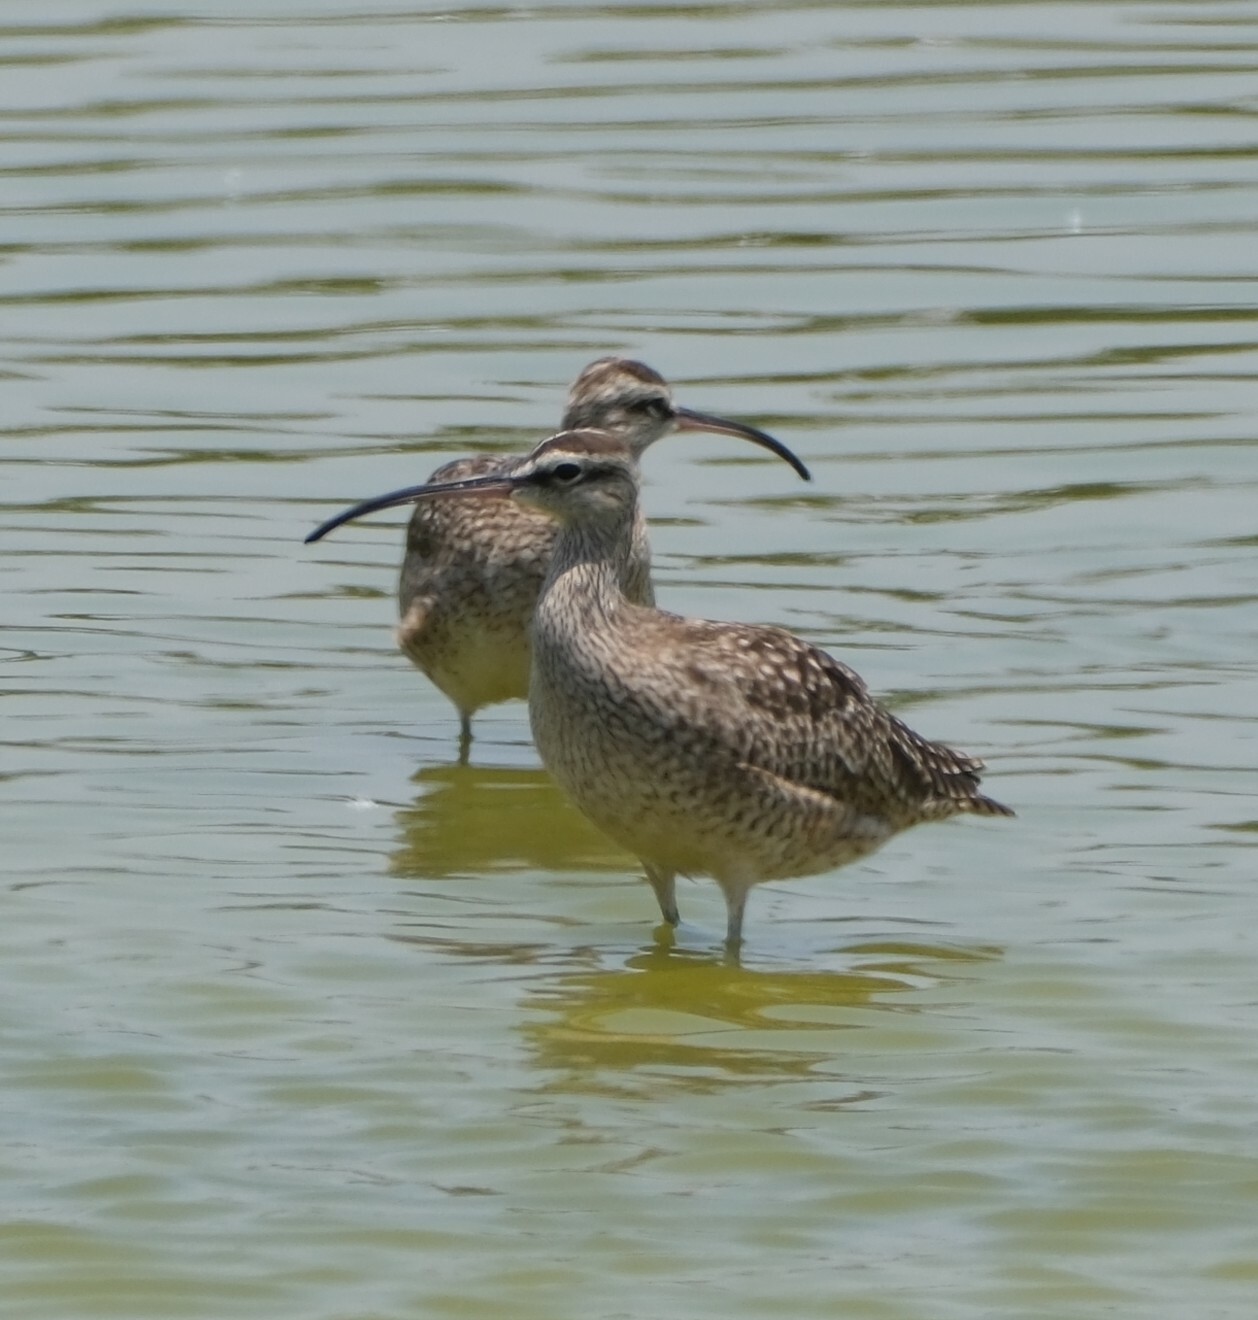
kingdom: Animalia
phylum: Chordata
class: Aves
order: Charadriiformes
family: Scolopacidae
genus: Numenius
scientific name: Numenius phaeopus
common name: Whimbrel
